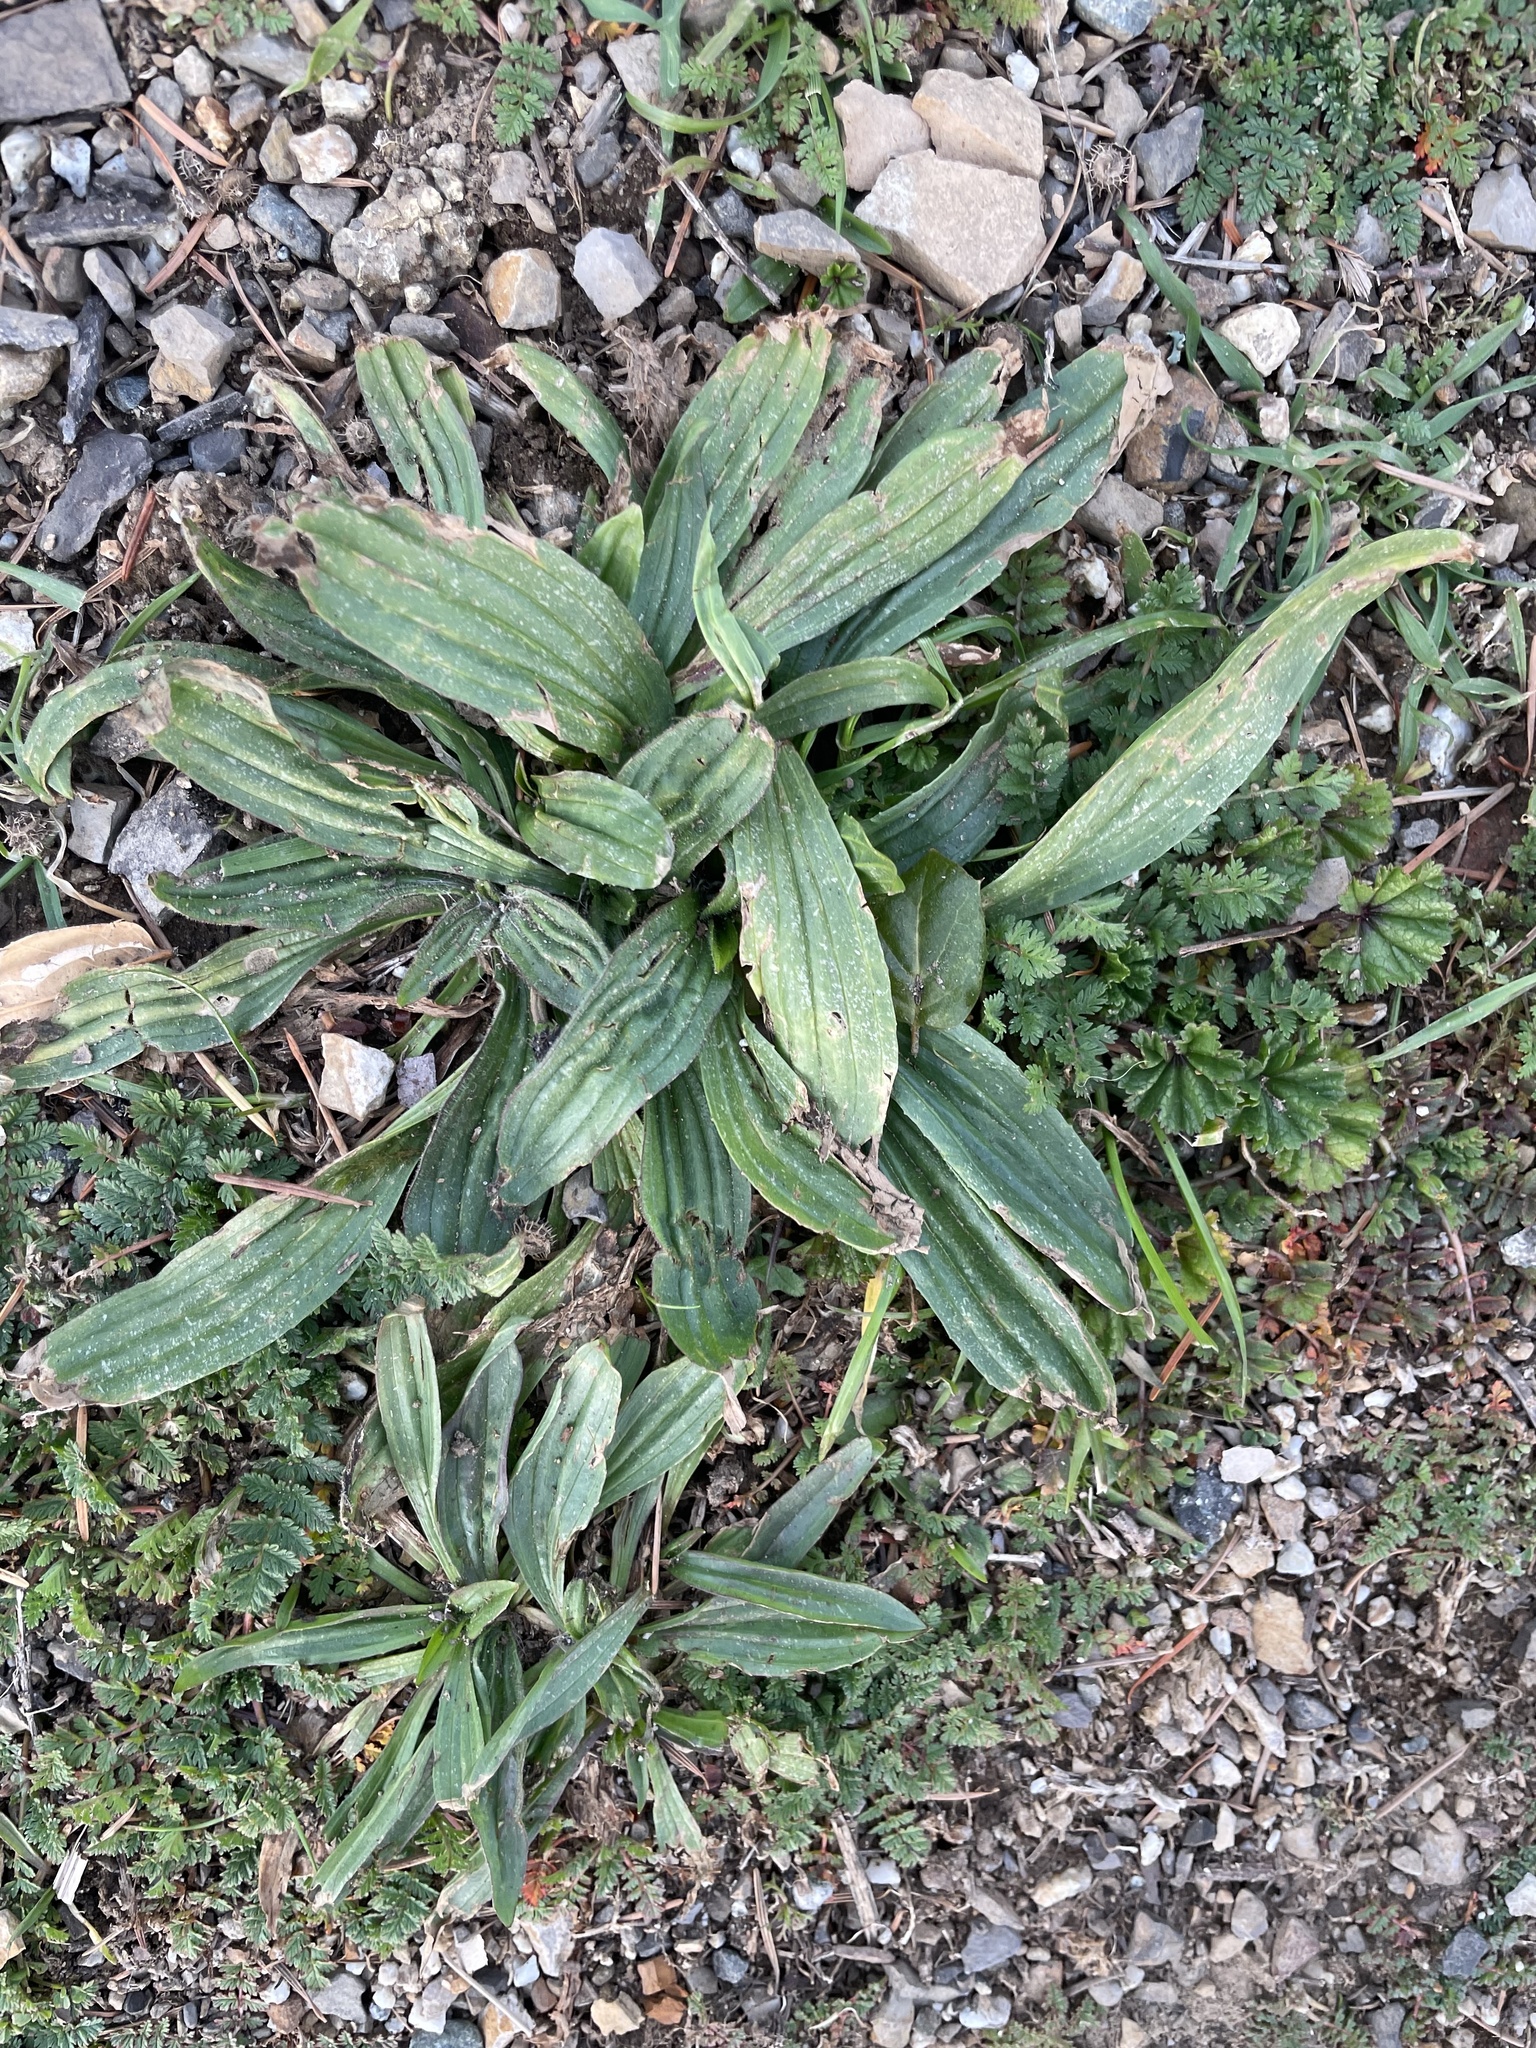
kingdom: Plantae
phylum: Tracheophyta
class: Magnoliopsida
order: Lamiales
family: Plantaginaceae
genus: Plantago
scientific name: Plantago lanceolata
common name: Ribwort plantain
